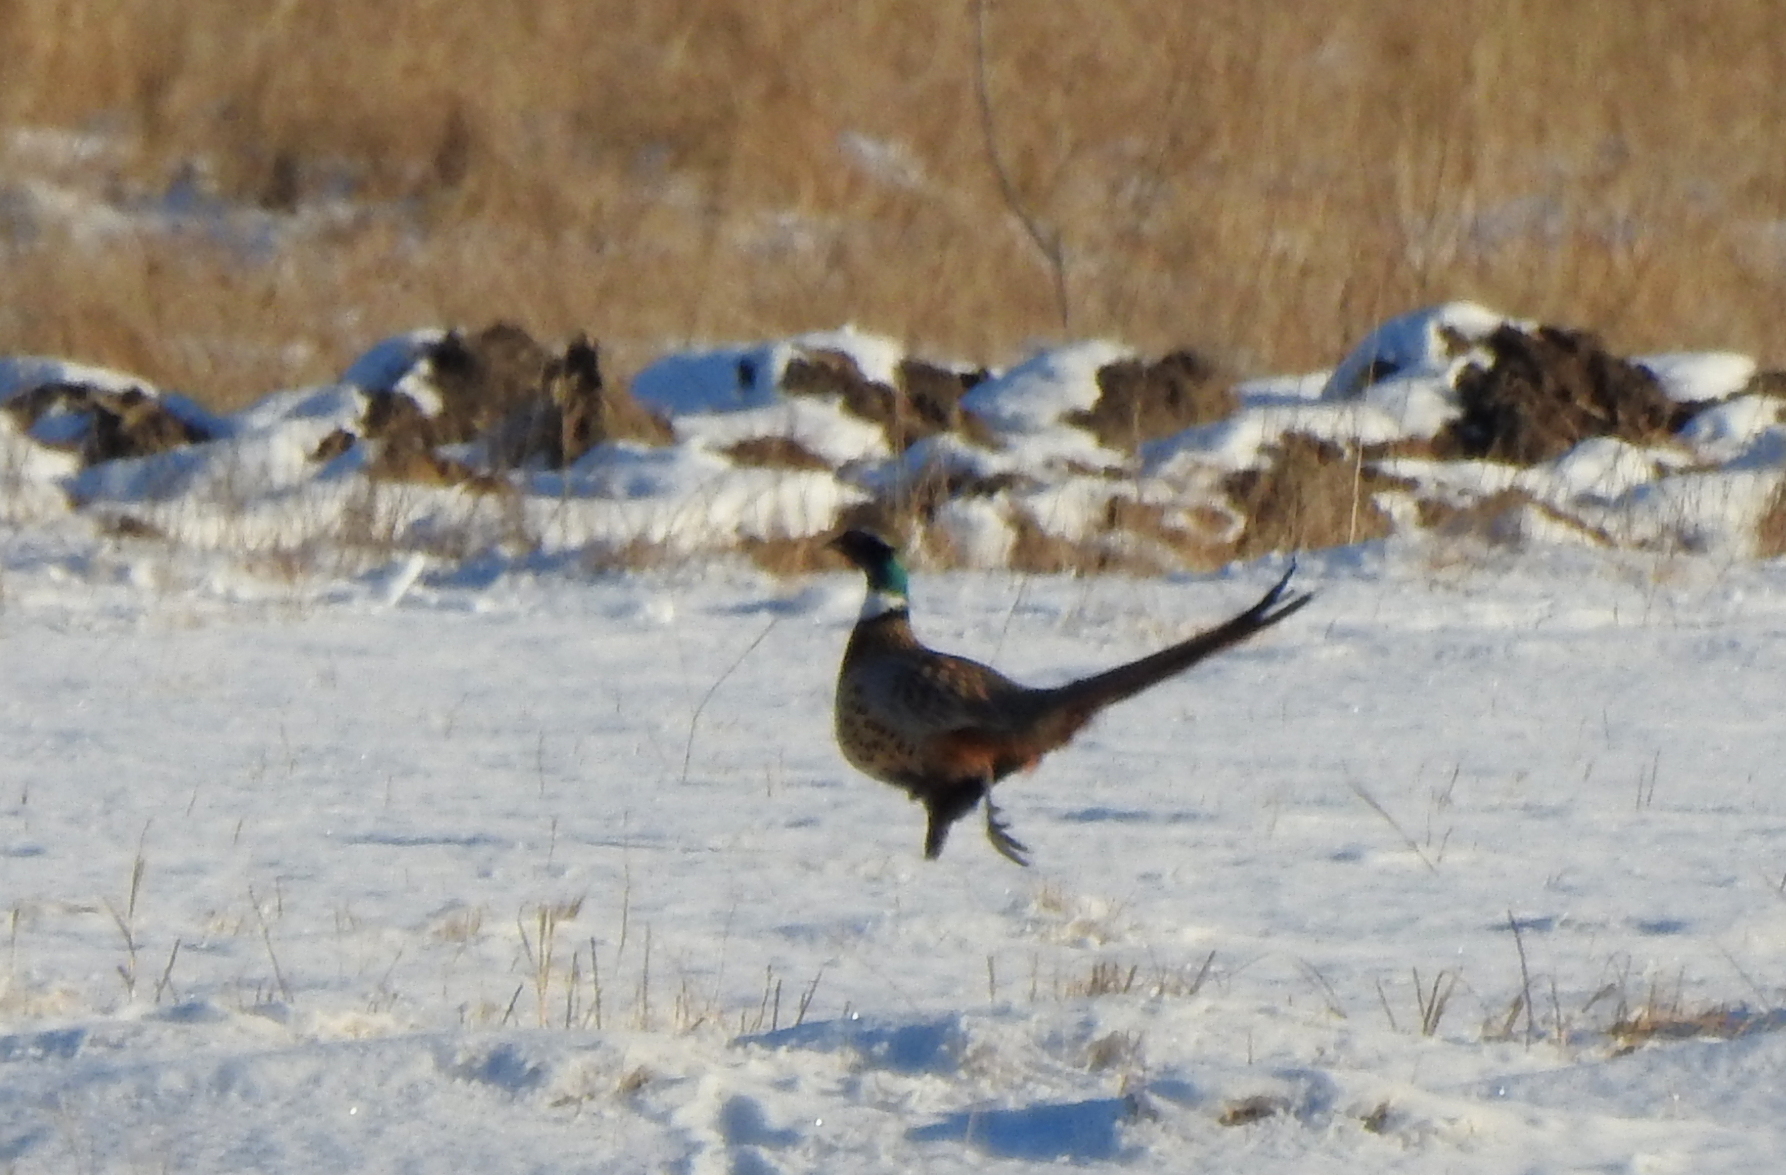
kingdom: Animalia
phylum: Chordata
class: Aves
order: Galliformes
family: Phasianidae
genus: Phasianus
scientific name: Phasianus colchicus
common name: Common pheasant
